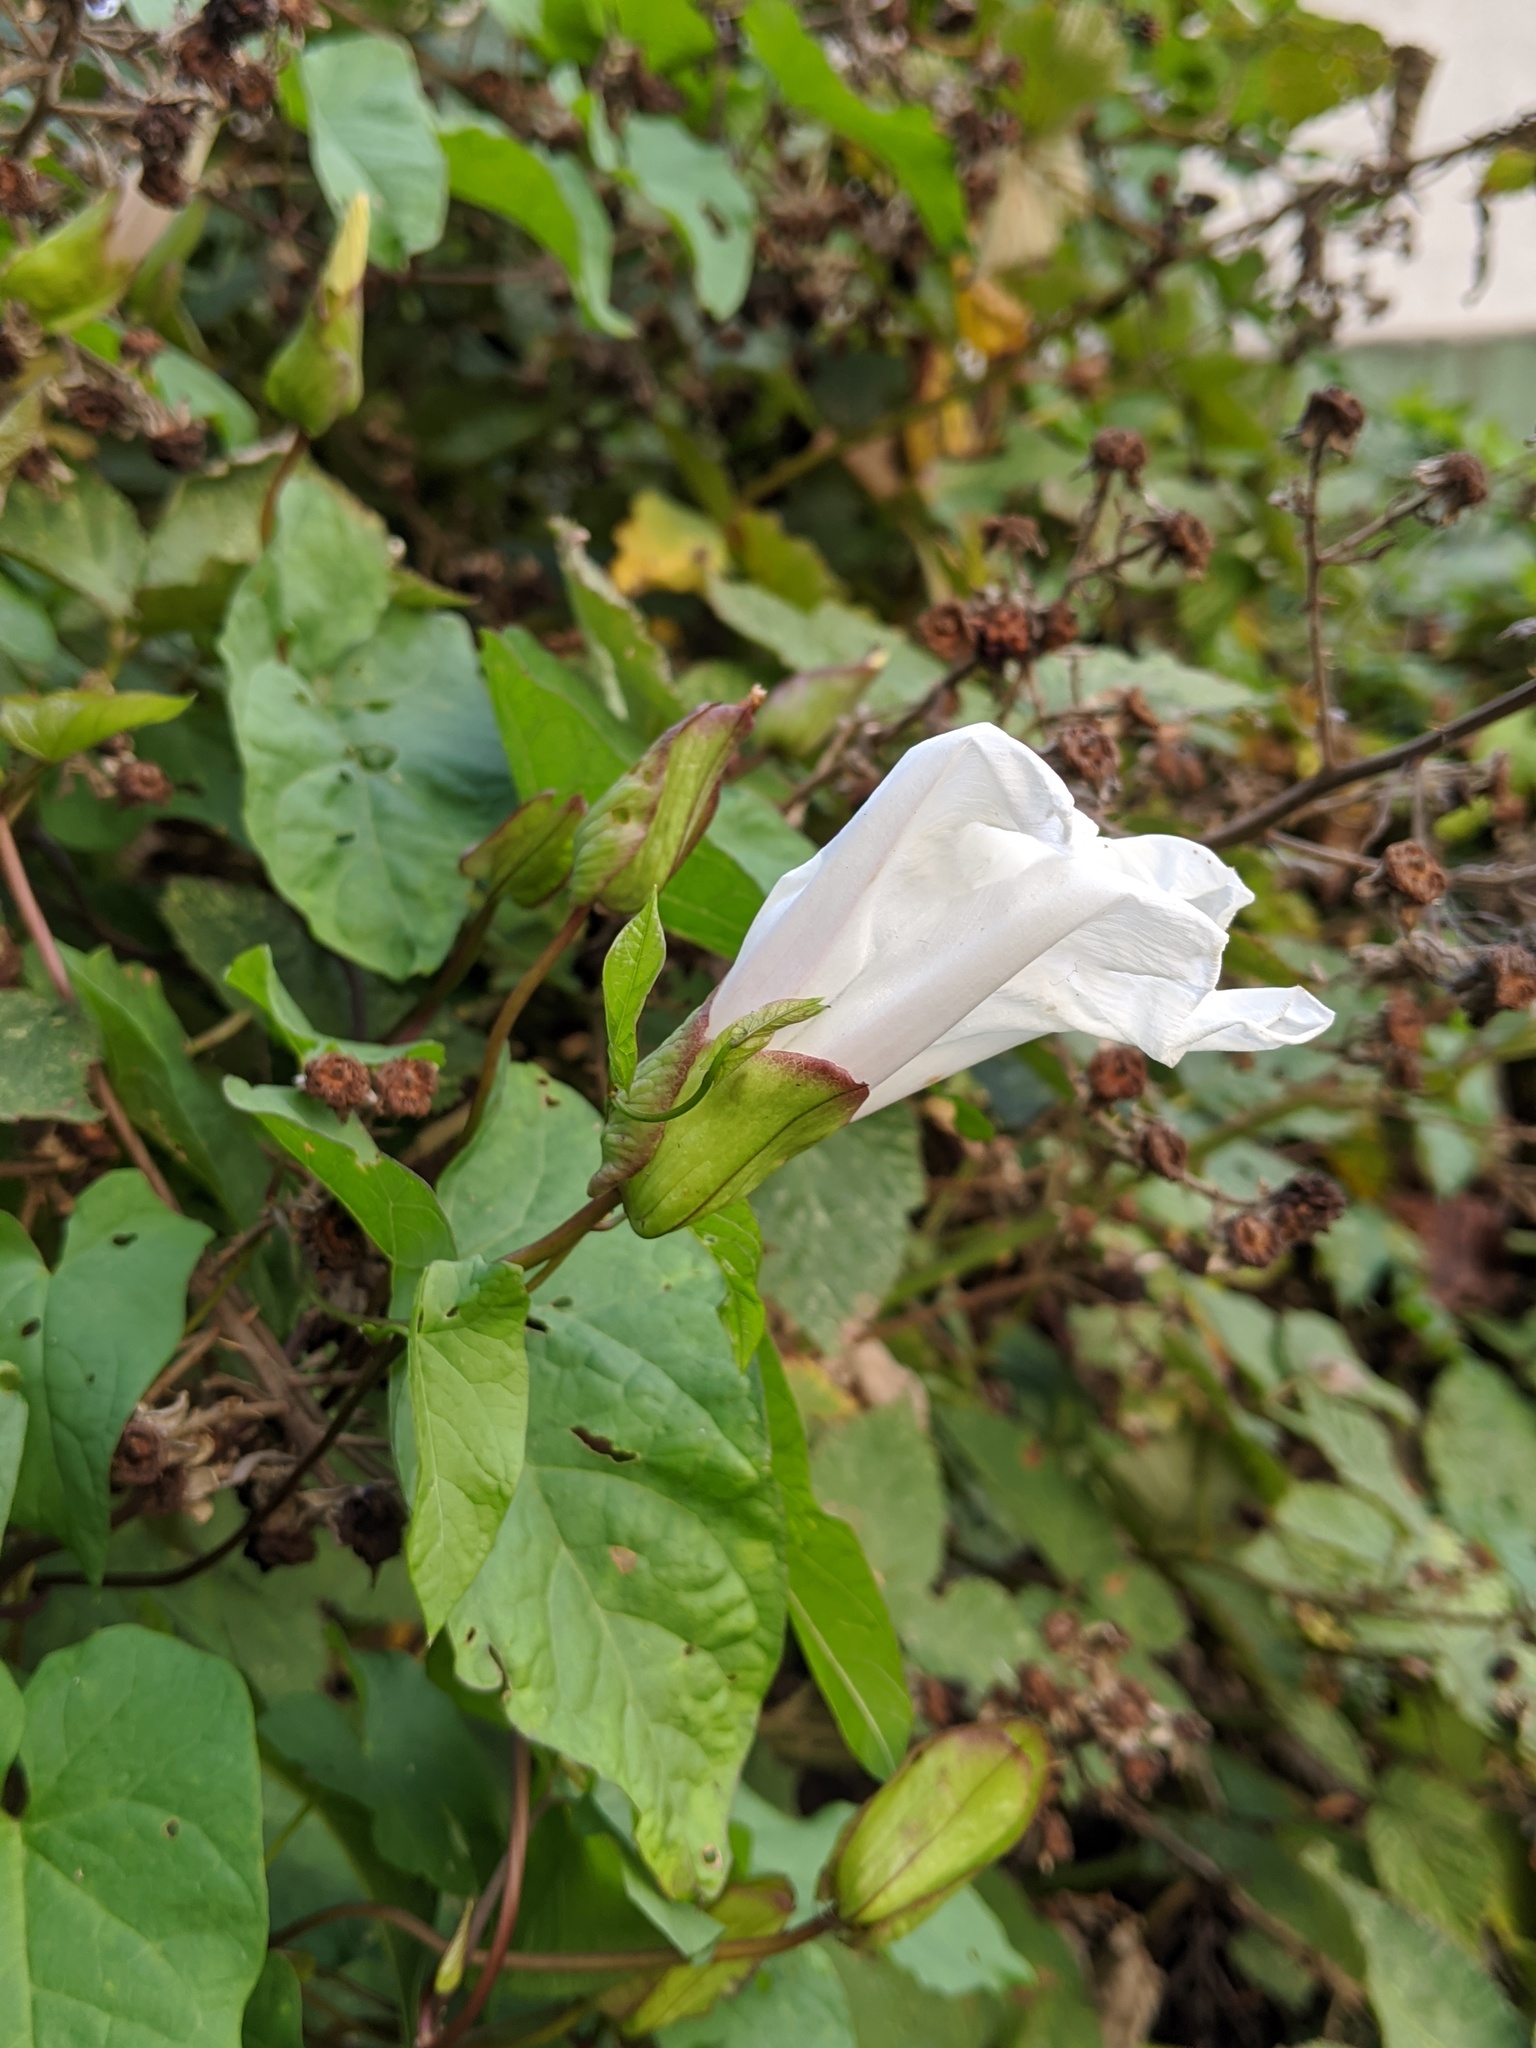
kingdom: Plantae
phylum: Tracheophyta
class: Magnoliopsida
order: Solanales
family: Convolvulaceae
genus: Calystegia
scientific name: Calystegia silvatica
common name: Large bindweed
